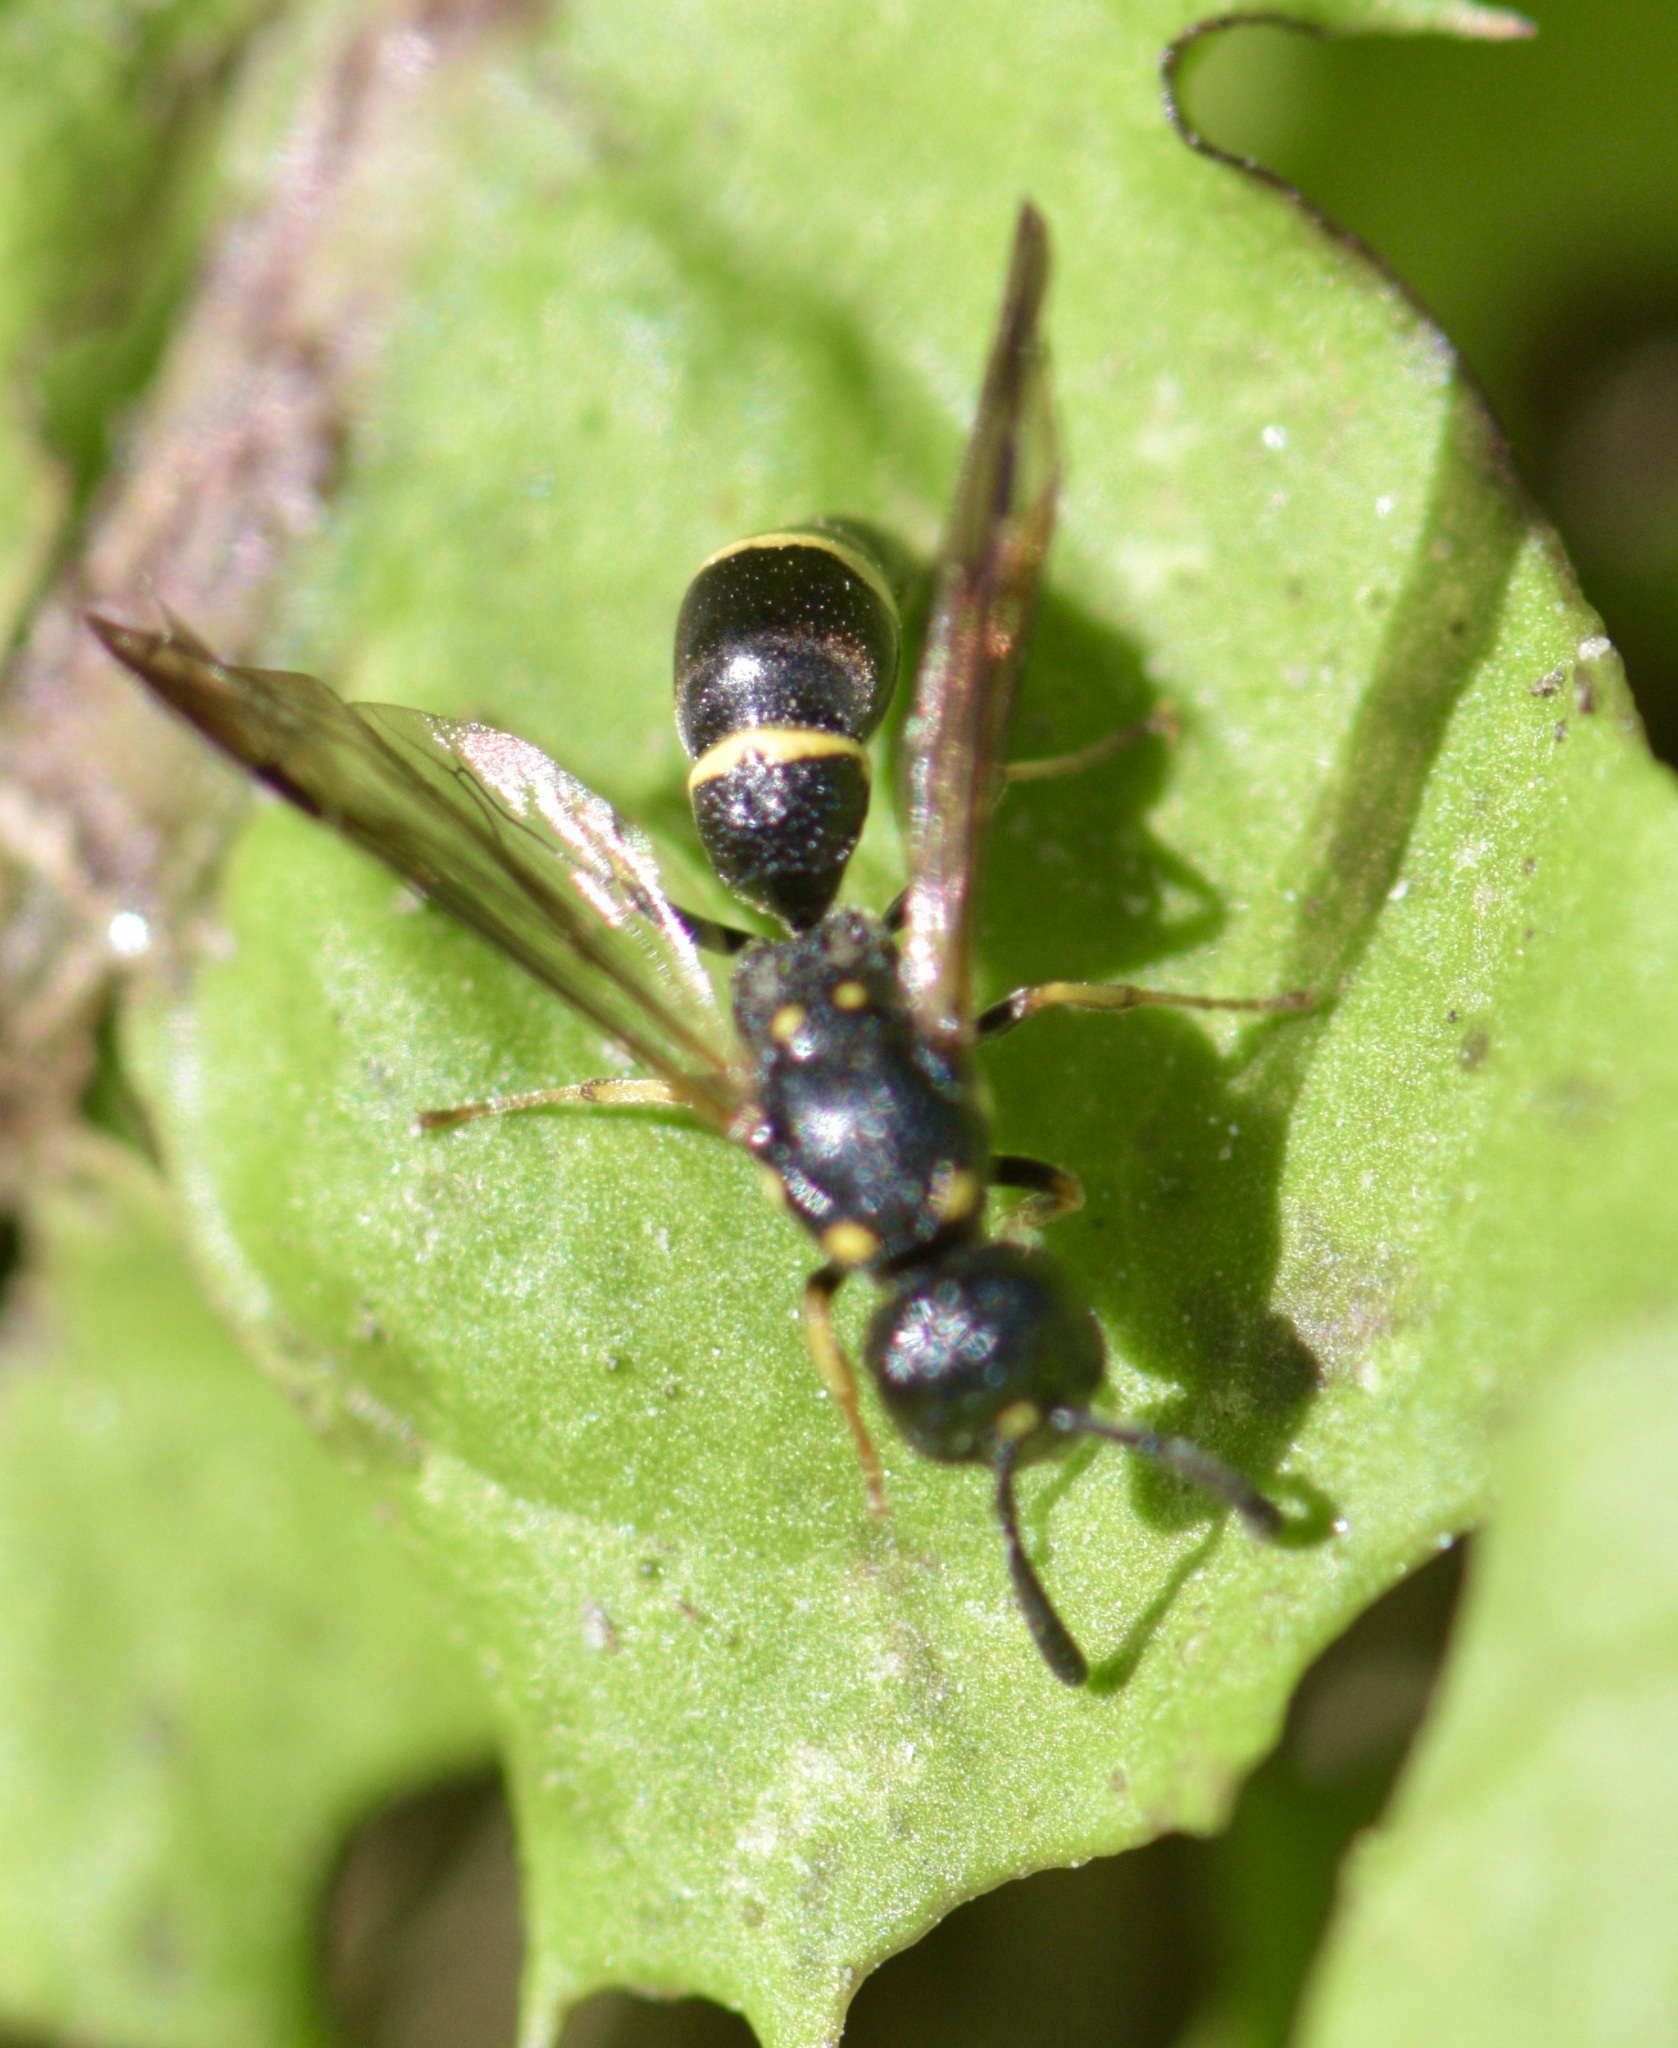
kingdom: Animalia
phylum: Arthropoda
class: Insecta
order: Hymenoptera
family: Eumenidae
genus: Symmorphus
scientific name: Symmorphus
